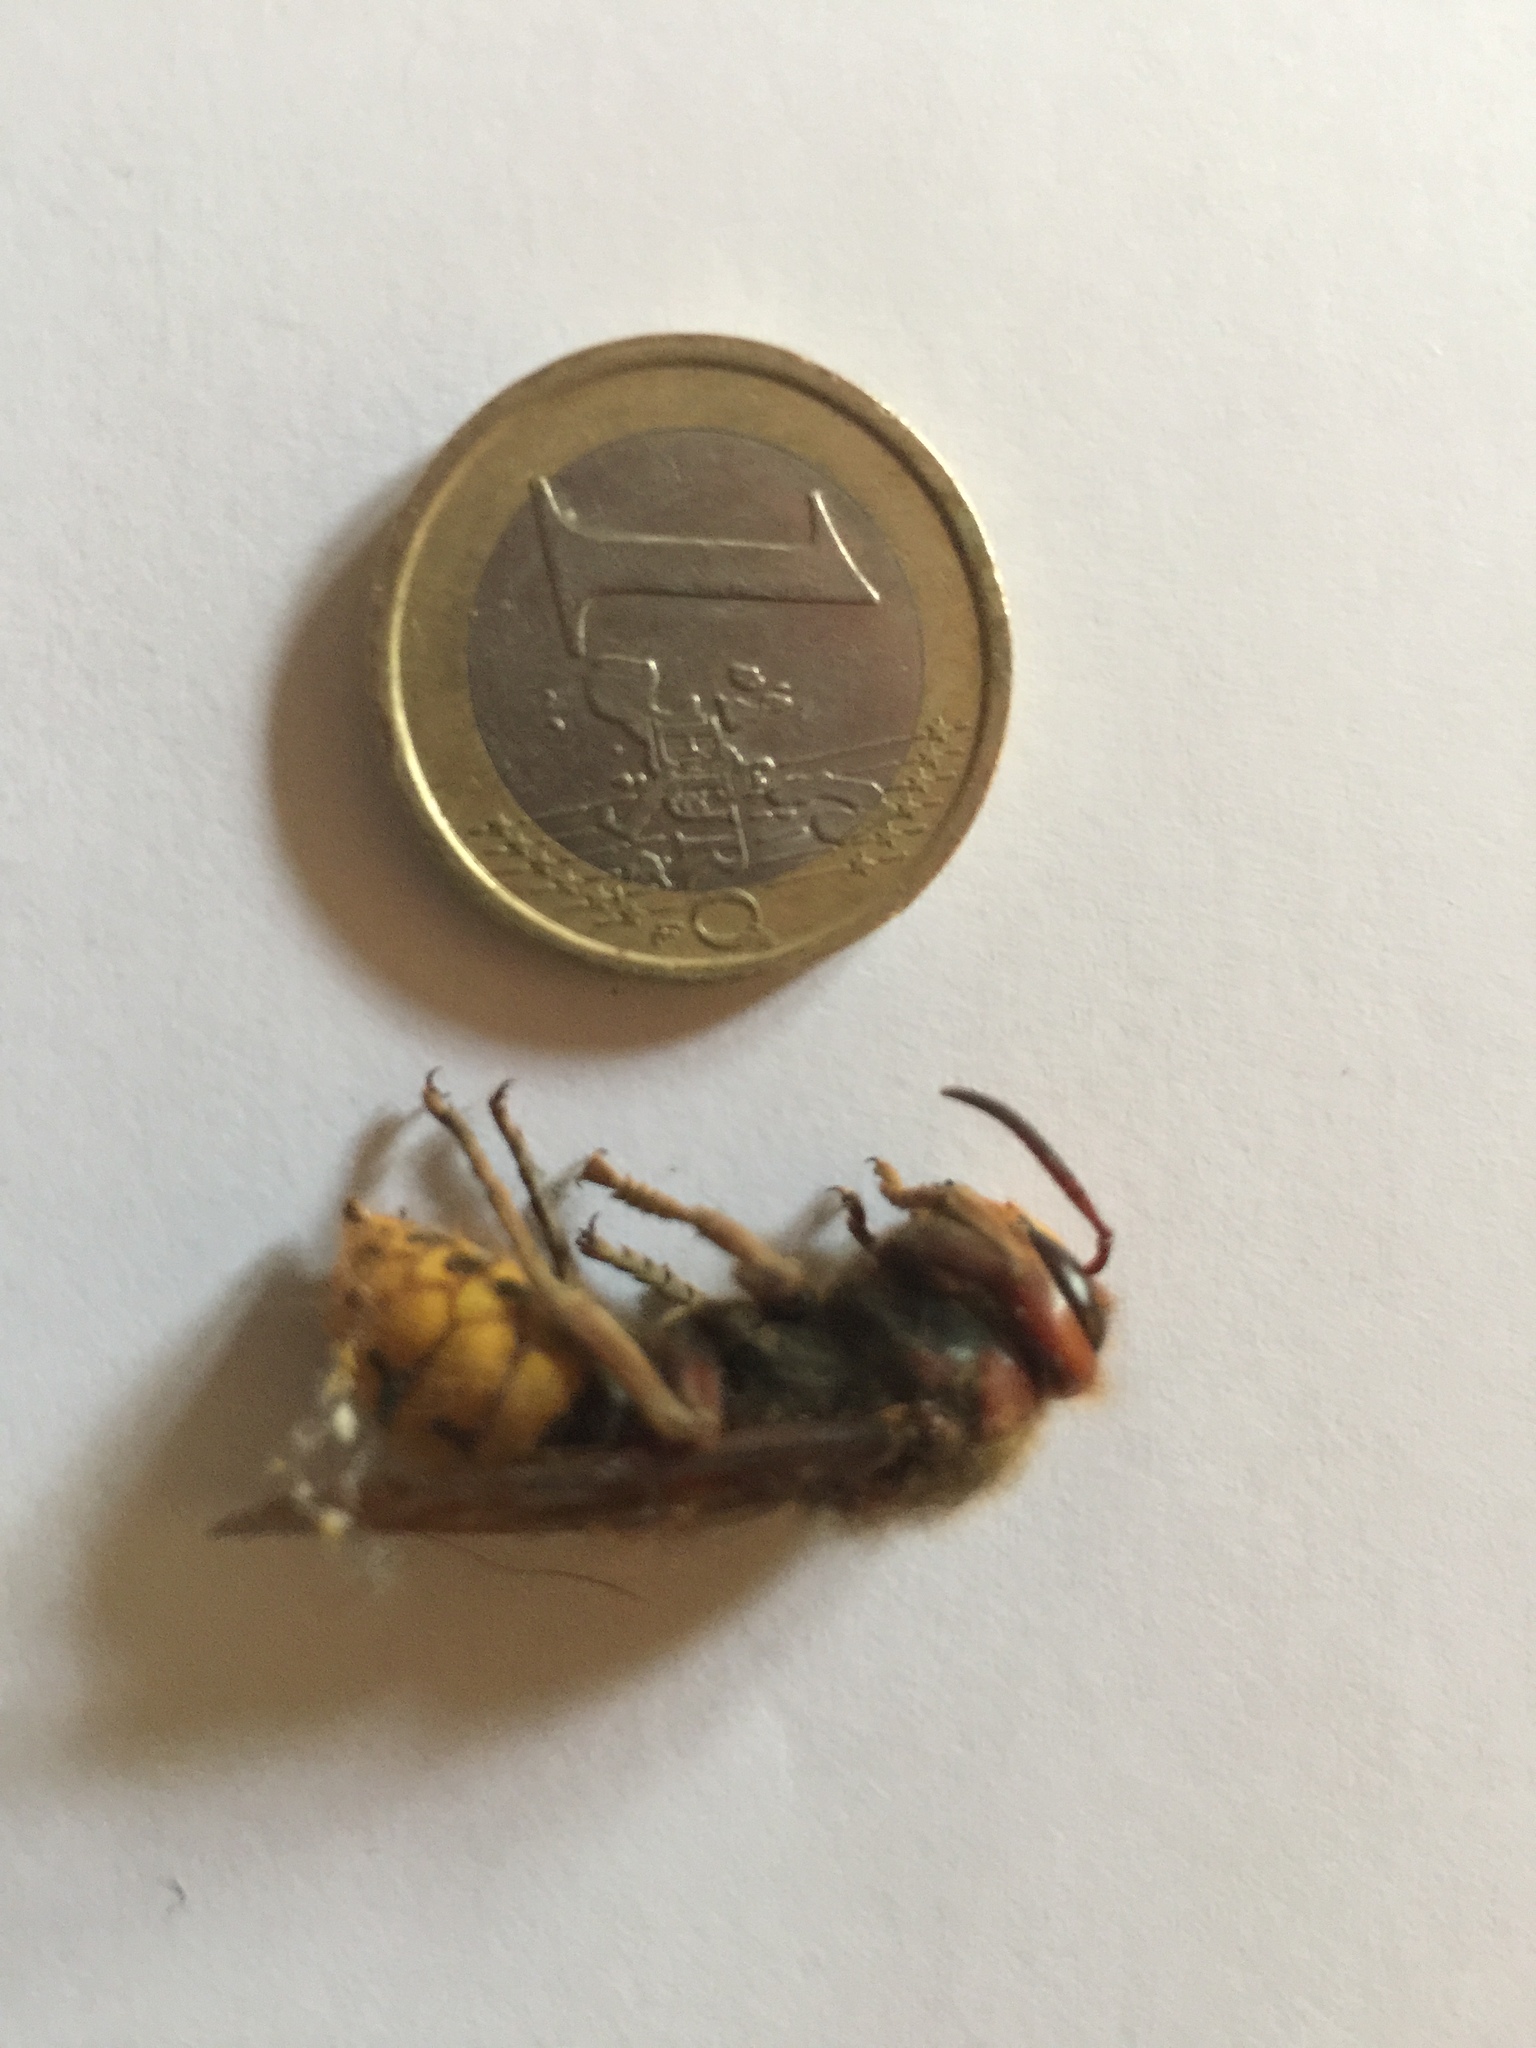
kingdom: Animalia
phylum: Arthropoda
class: Insecta
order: Hymenoptera
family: Vespidae
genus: Vespa
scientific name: Vespa crabro
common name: Hornet
